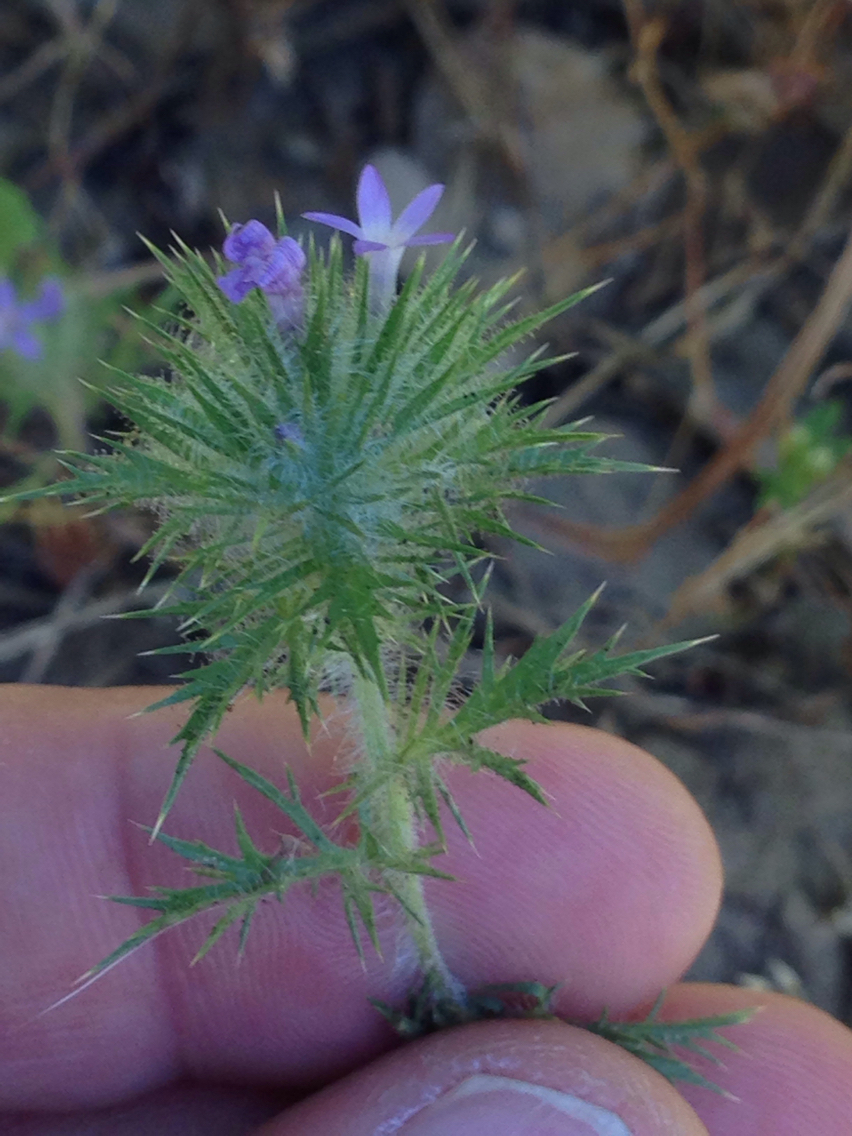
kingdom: Plantae
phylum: Tracheophyta
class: Magnoliopsida
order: Ericales
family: Polemoniaceae
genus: Navarretia
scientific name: Navarretia squarrosa
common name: Skunkweed
